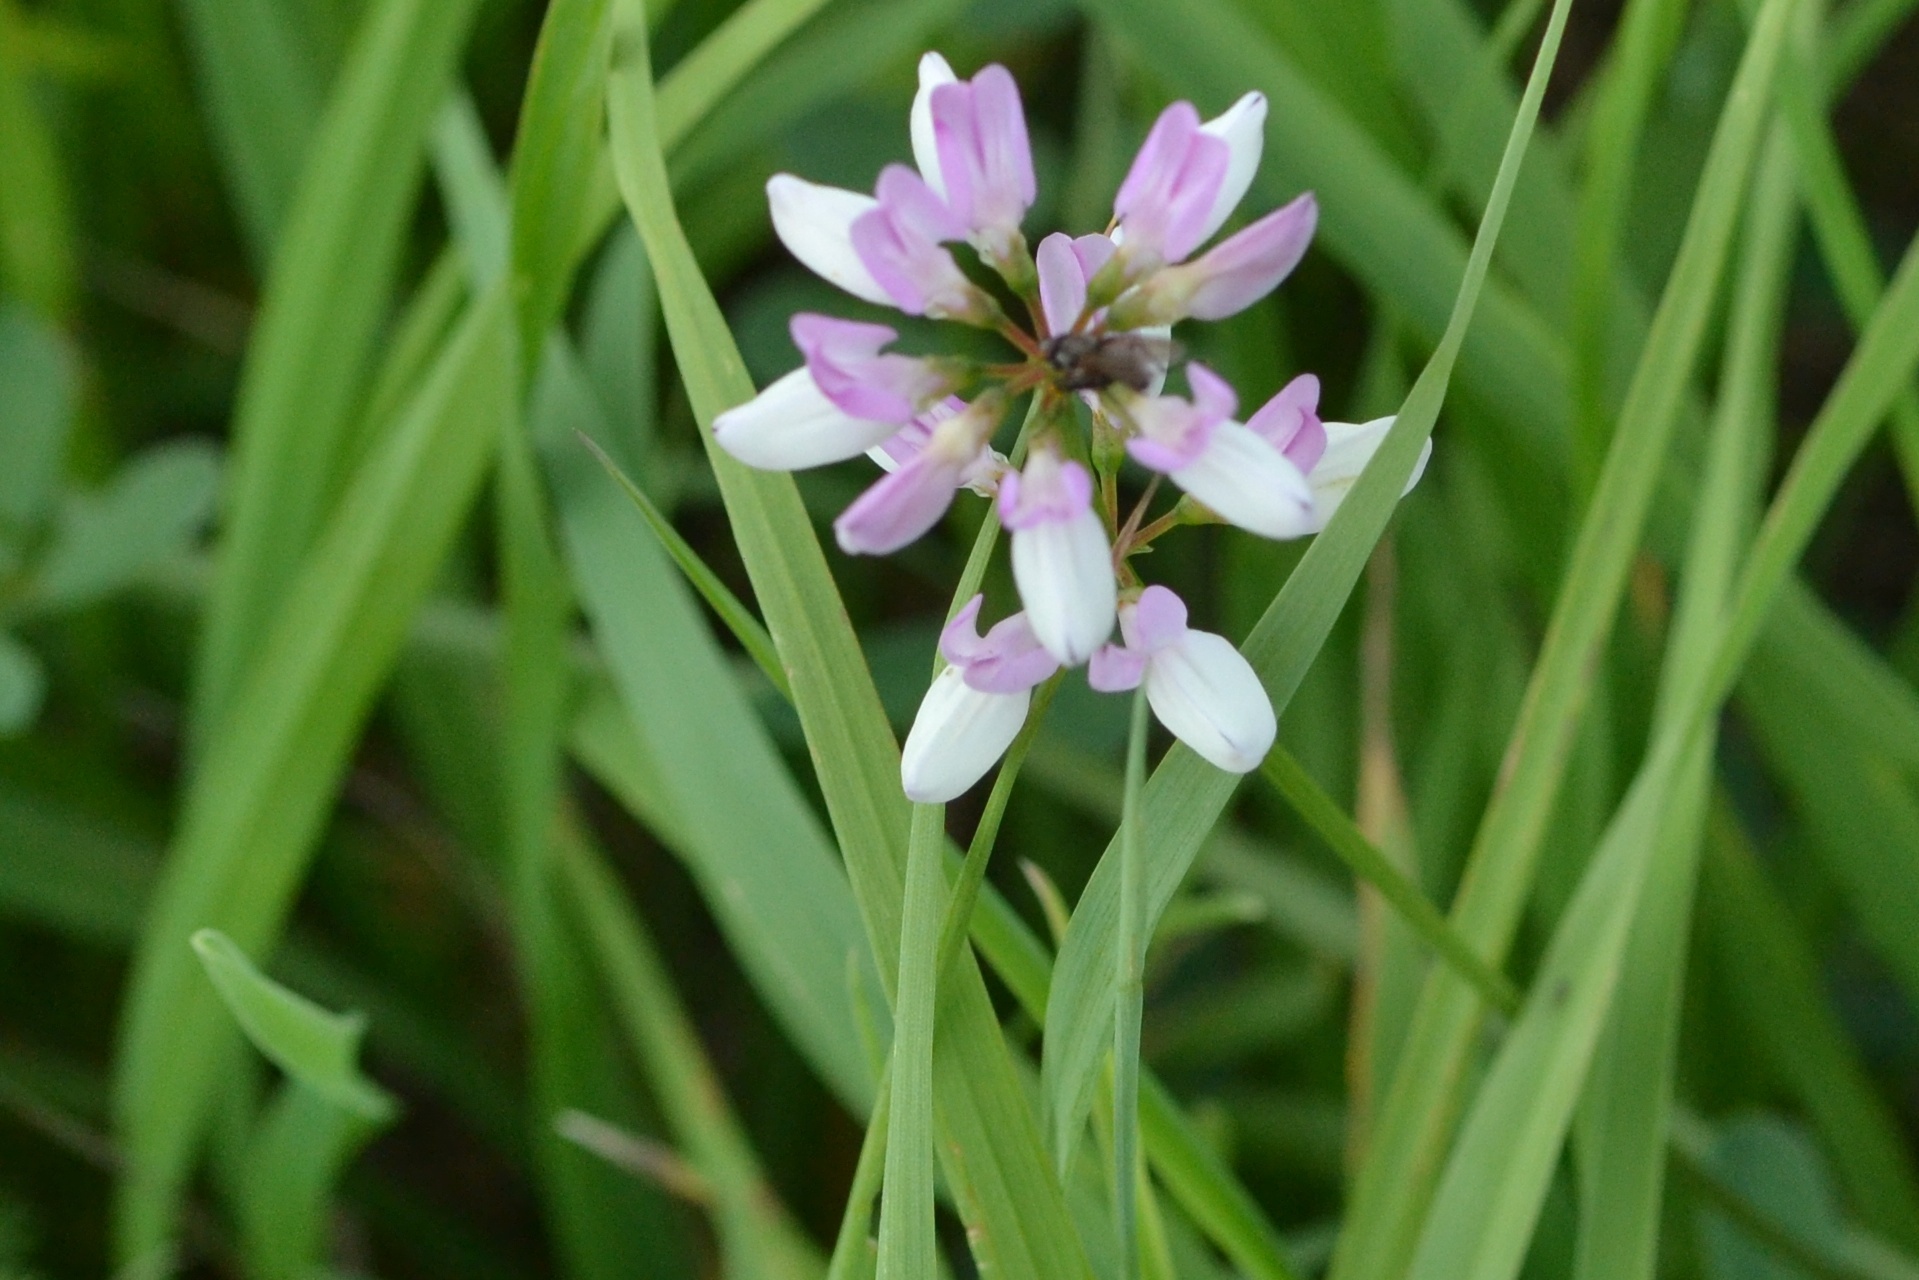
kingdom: Plantae
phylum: Tracheophyta
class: Magnoliopsida
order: Fabales
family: Fabaceae
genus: Coronilla
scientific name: Coronilla varia
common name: Crownvetch
